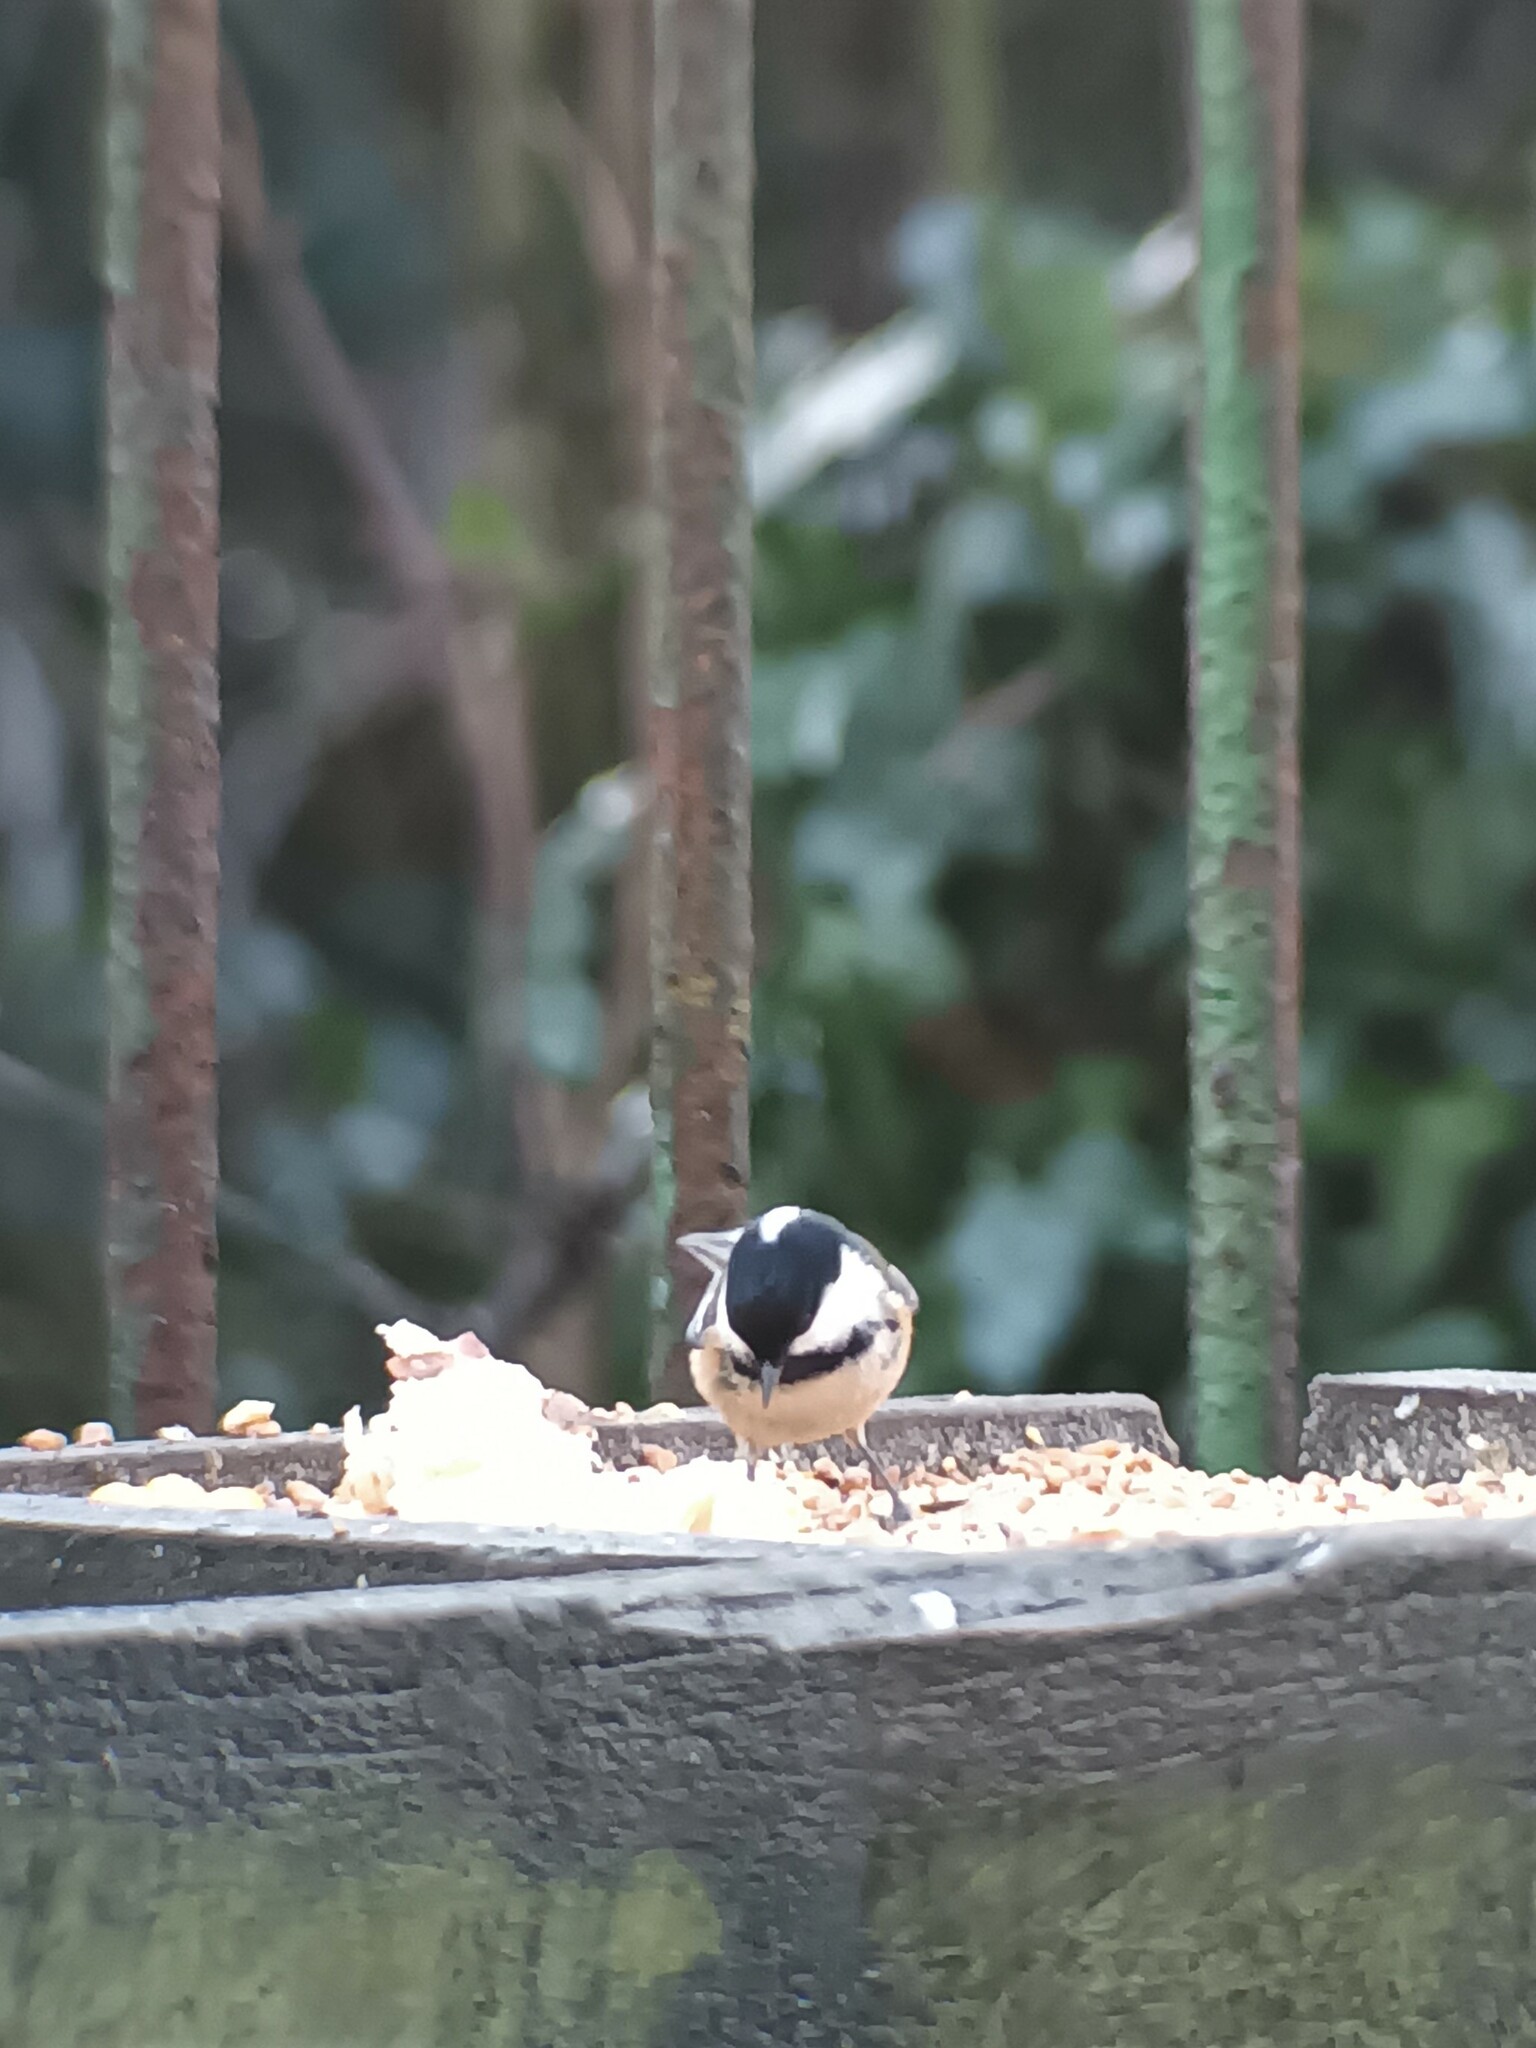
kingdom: Animalia
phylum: Chordata
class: Aves
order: Passeriformes
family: Paridae
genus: Periparus
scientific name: Periparus ater
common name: Coal tit
